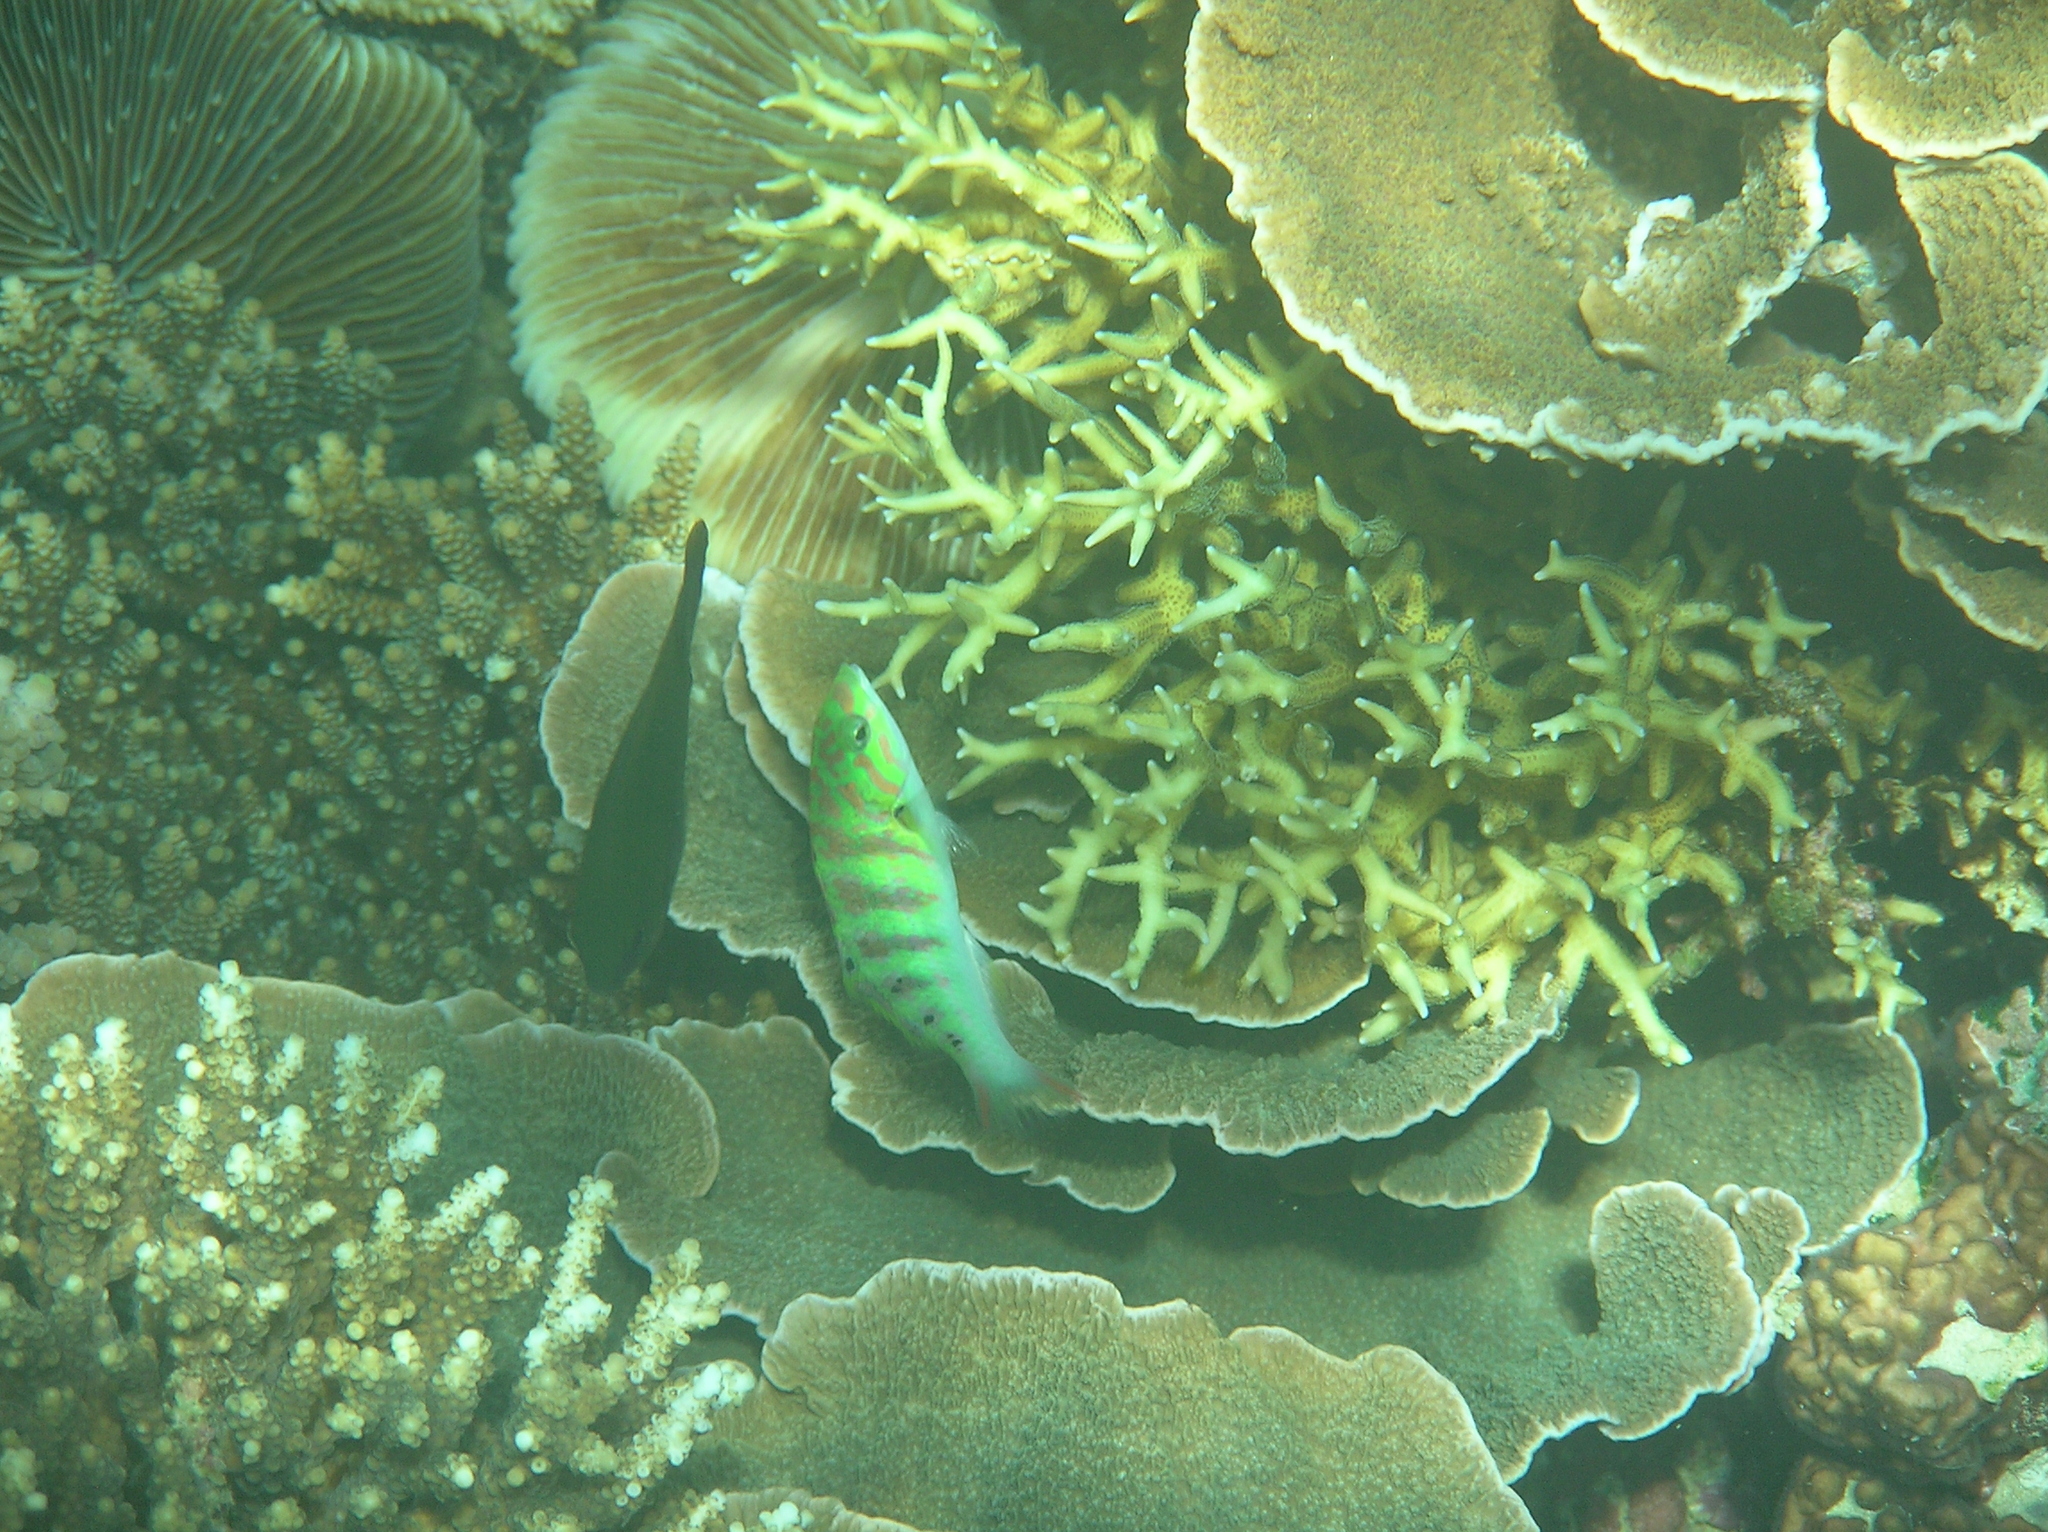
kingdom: Animalia
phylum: Chordata
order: Perciformes
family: Labridae
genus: Thalassoma
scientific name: Thalassoma hardwicke
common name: Sixbar wrasse
